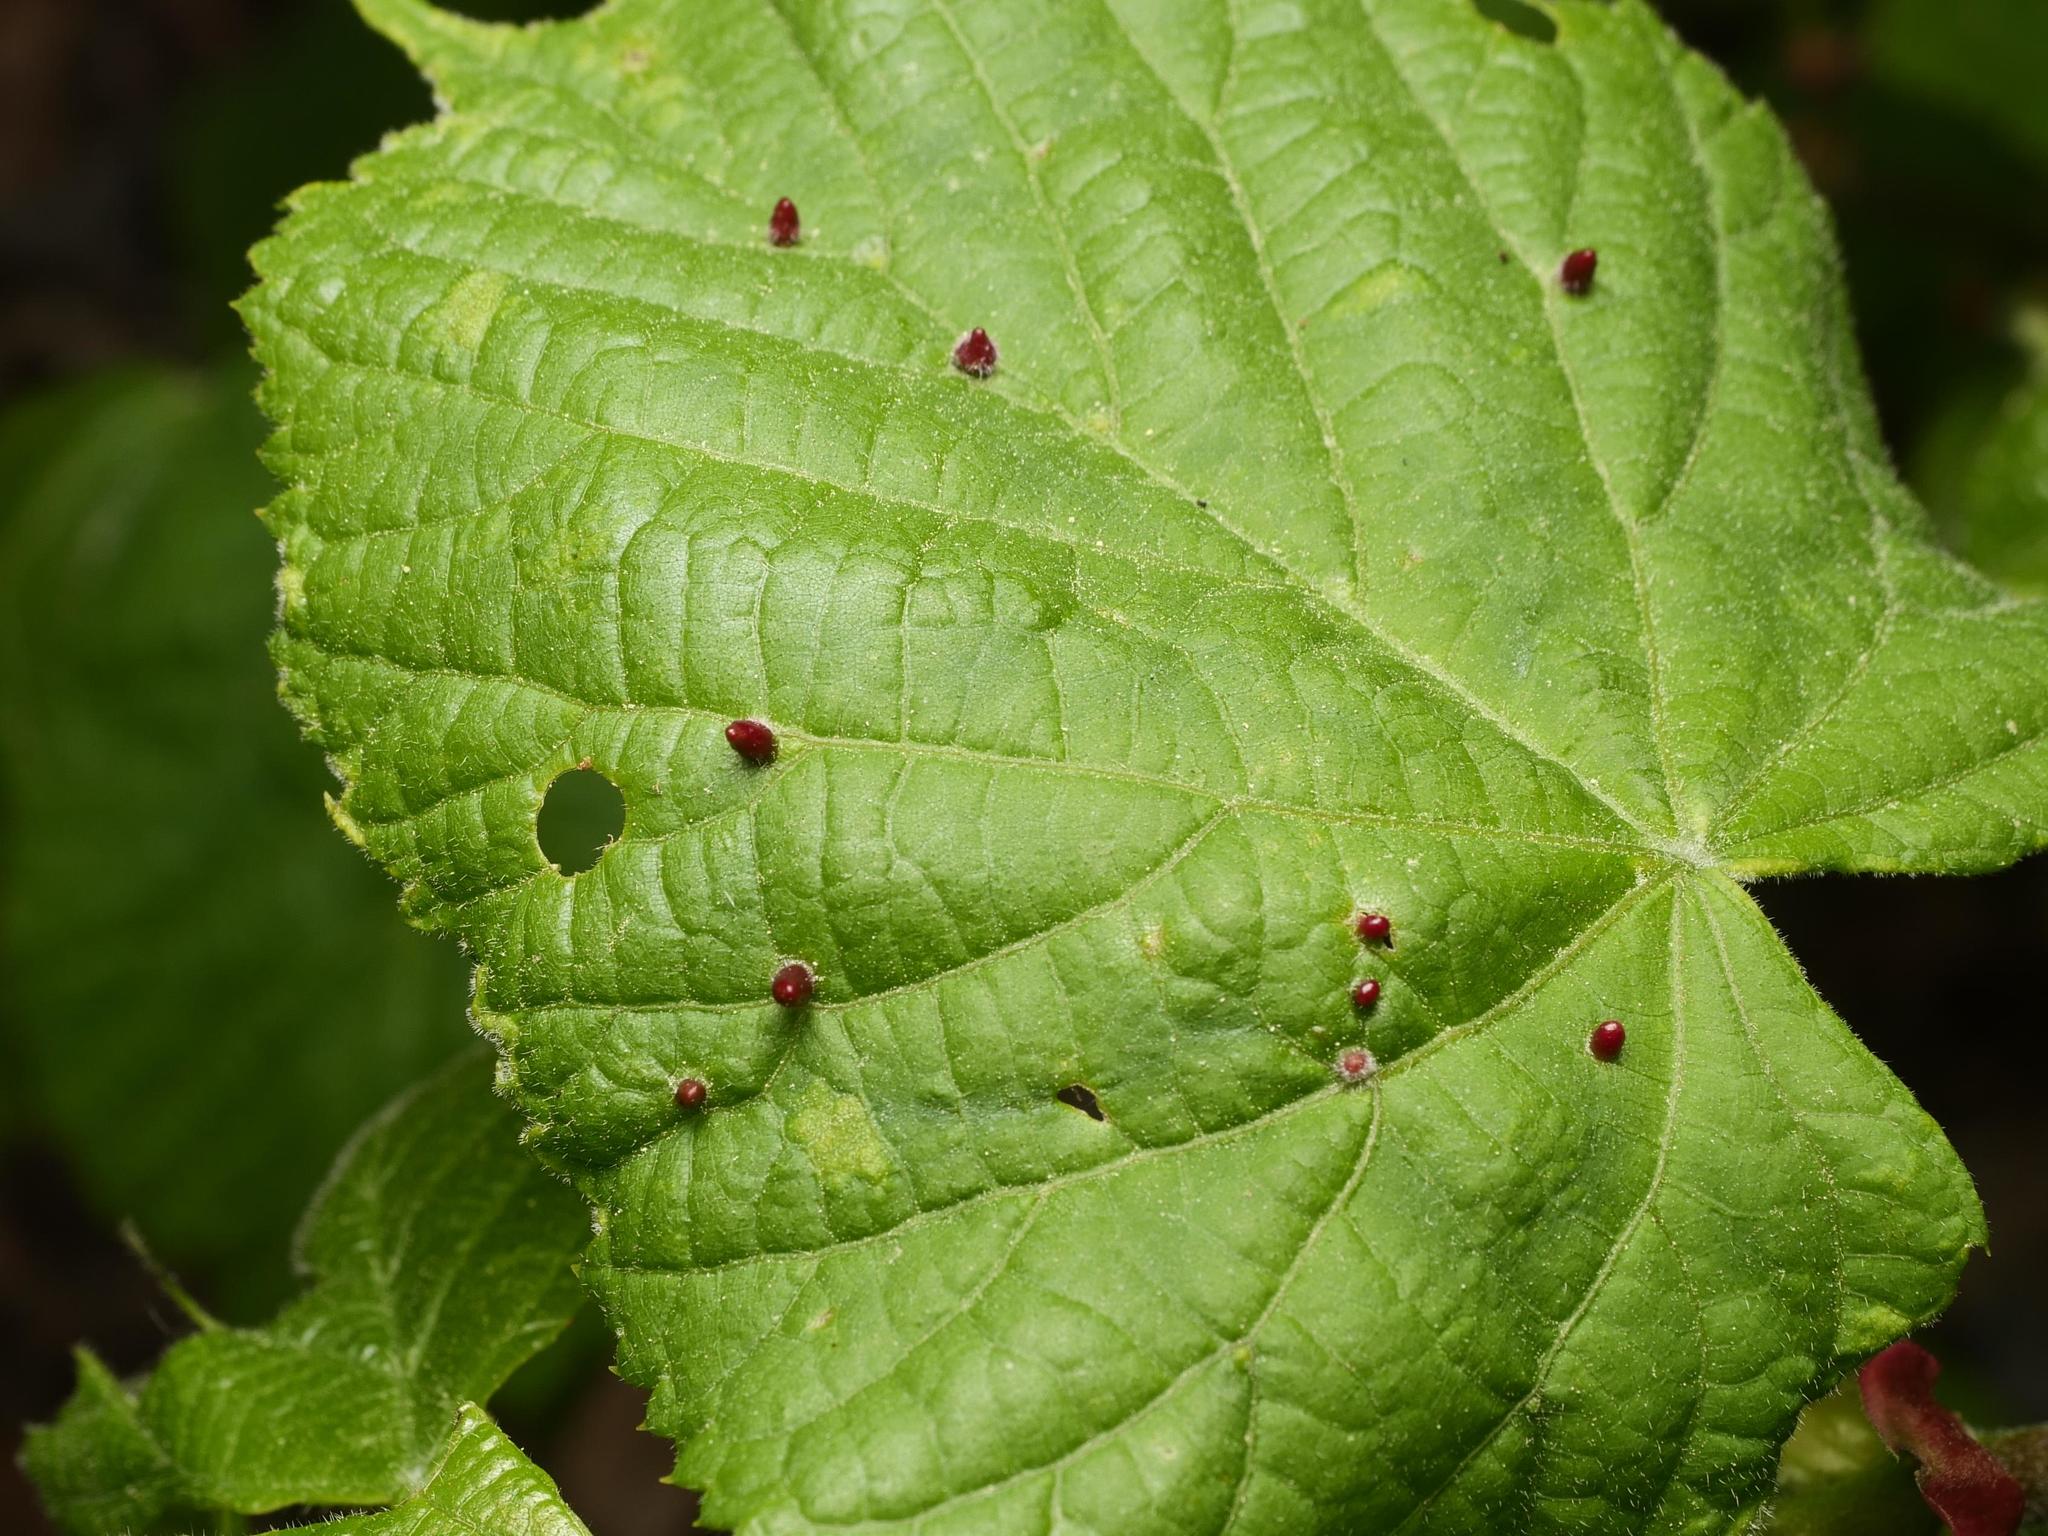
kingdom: Animalia
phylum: Arthropoda
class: Arachnida
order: Trombidiformes
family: Eriophyidae
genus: Eriophyes
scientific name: Eriophyes tiliae
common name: Red nail gall mite
